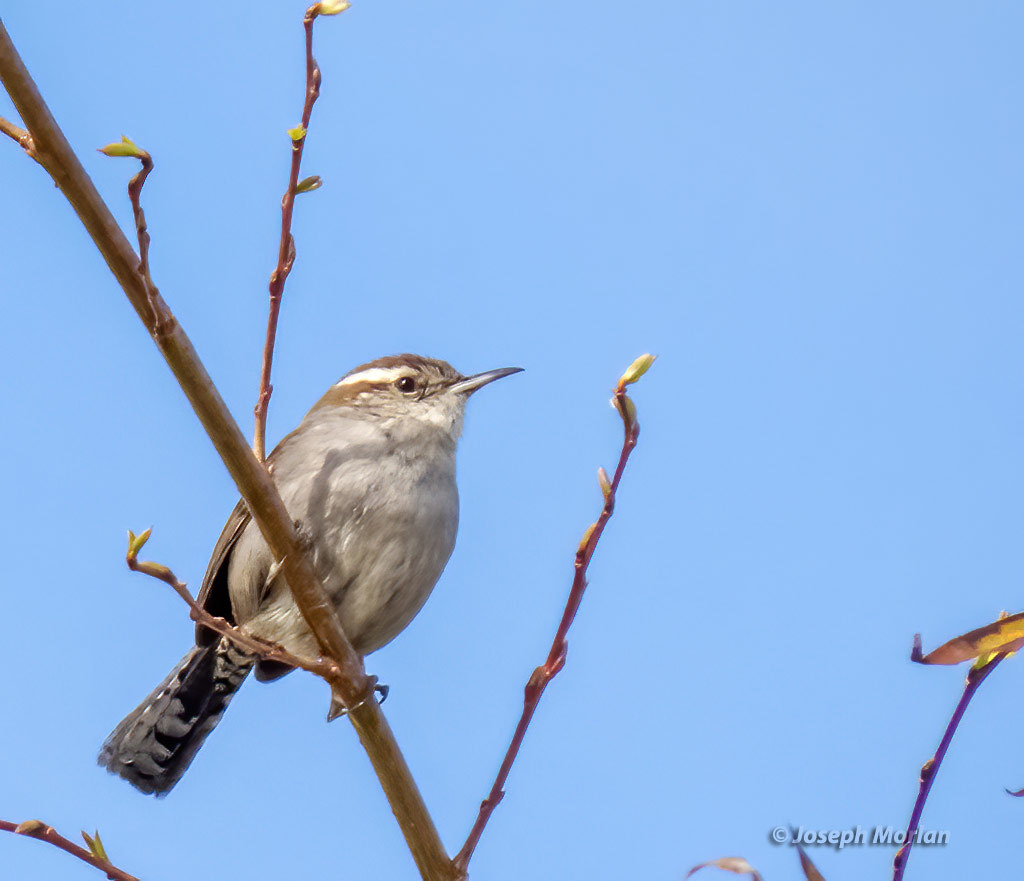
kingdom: Animalia
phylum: Chordata
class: Aves
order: Passeriformes
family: Troglodytidae
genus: Thryomanes
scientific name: Thryomanes bewickii
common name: Bewick's wren
